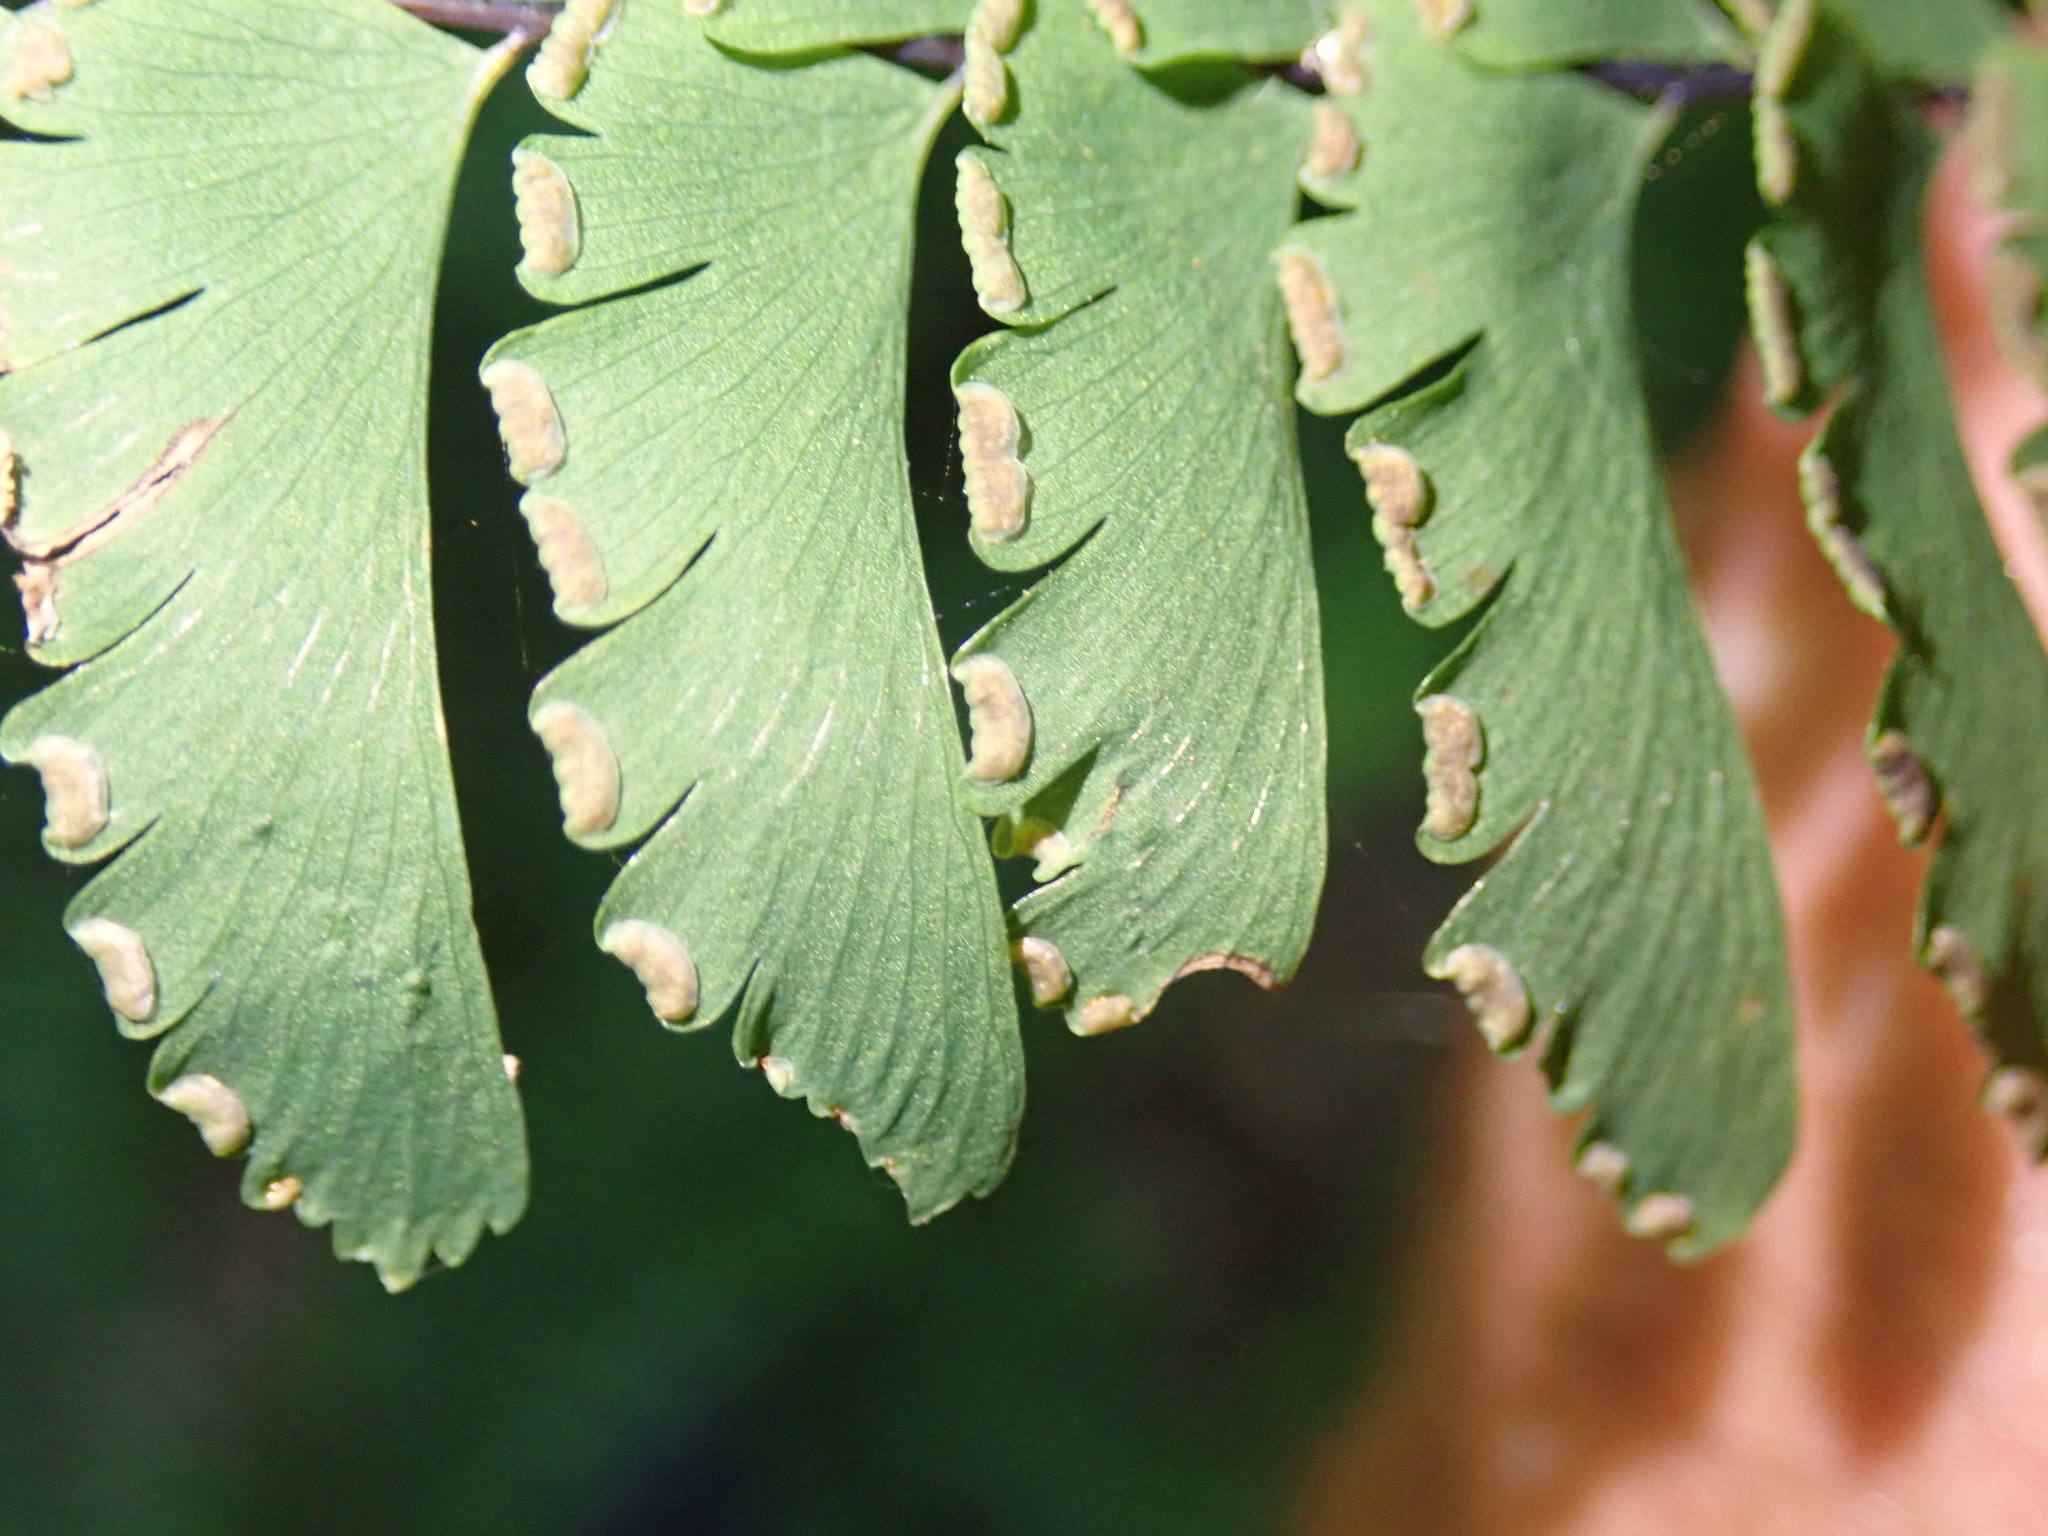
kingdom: Plantae
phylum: Tracheophyta
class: Polypodiopsida
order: Polypodiales
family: Pteridaceae
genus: Adiantum
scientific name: Adiantum aleuticum
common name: Aleutian maidenhair fern
